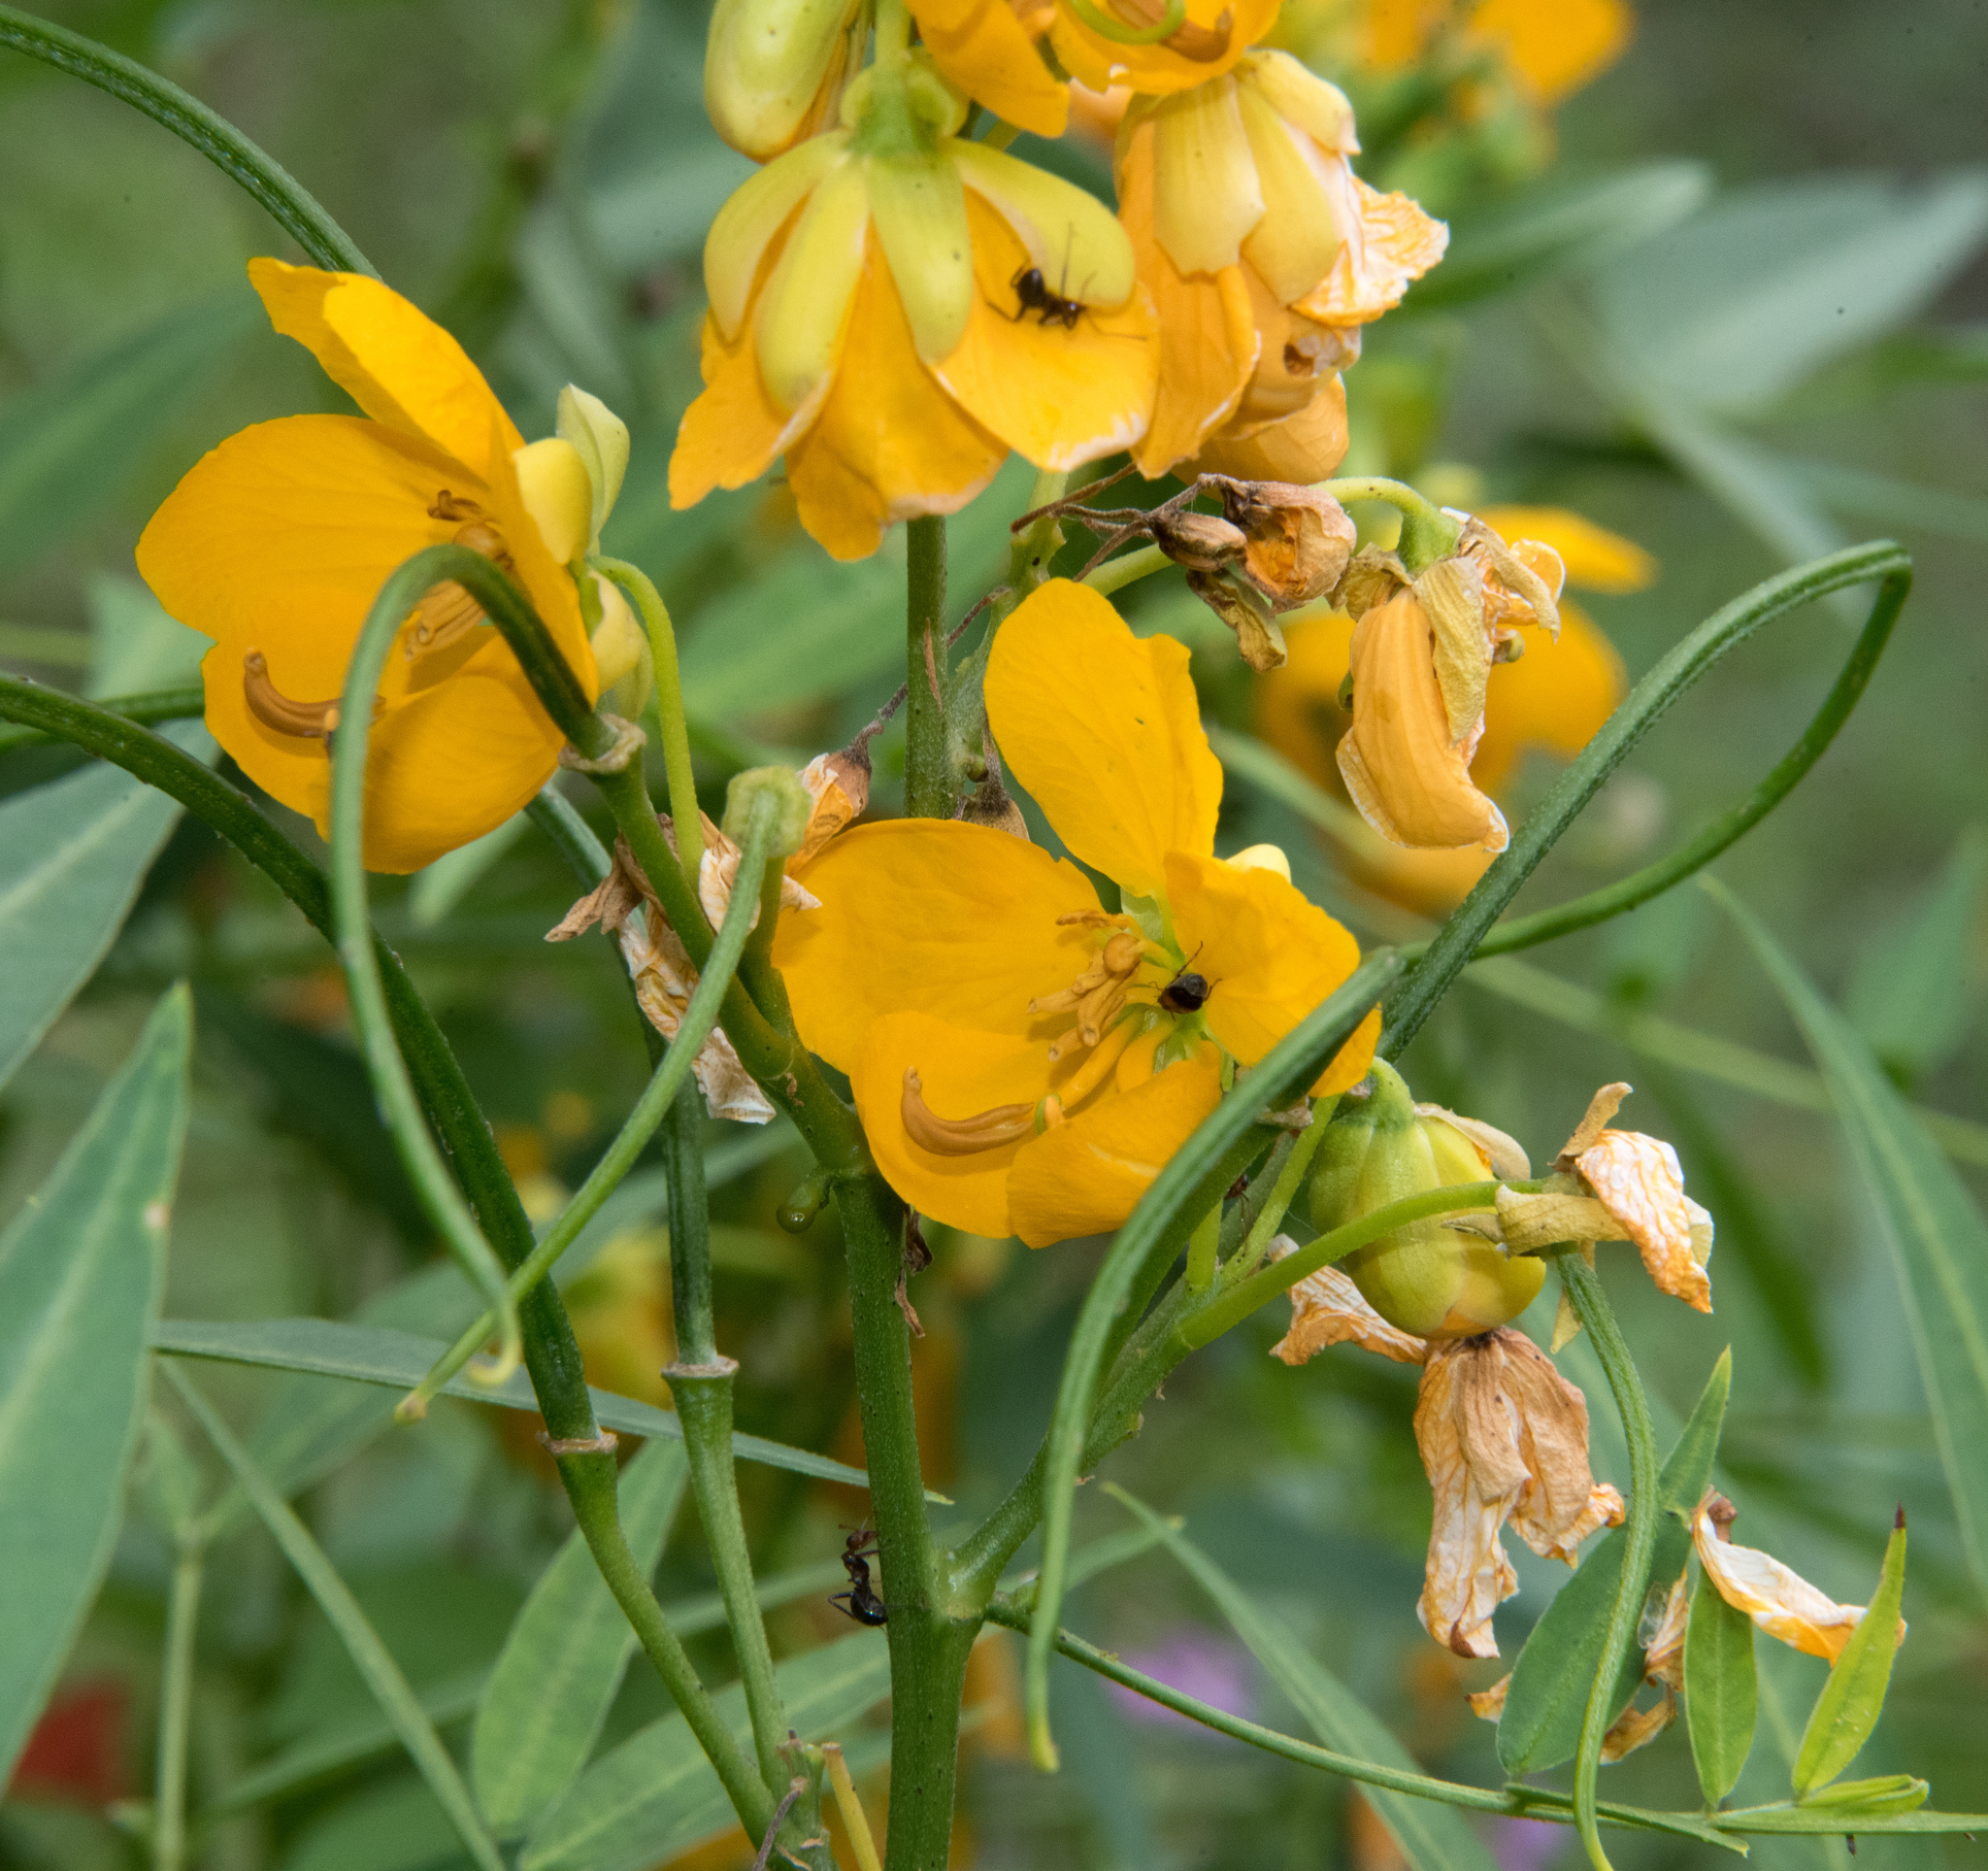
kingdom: Plantae
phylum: Tracheophyta
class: Magnoliopsida
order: Fabales
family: Fabaceae
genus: Senna
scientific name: Senna hirsuta
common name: Woolly senna
